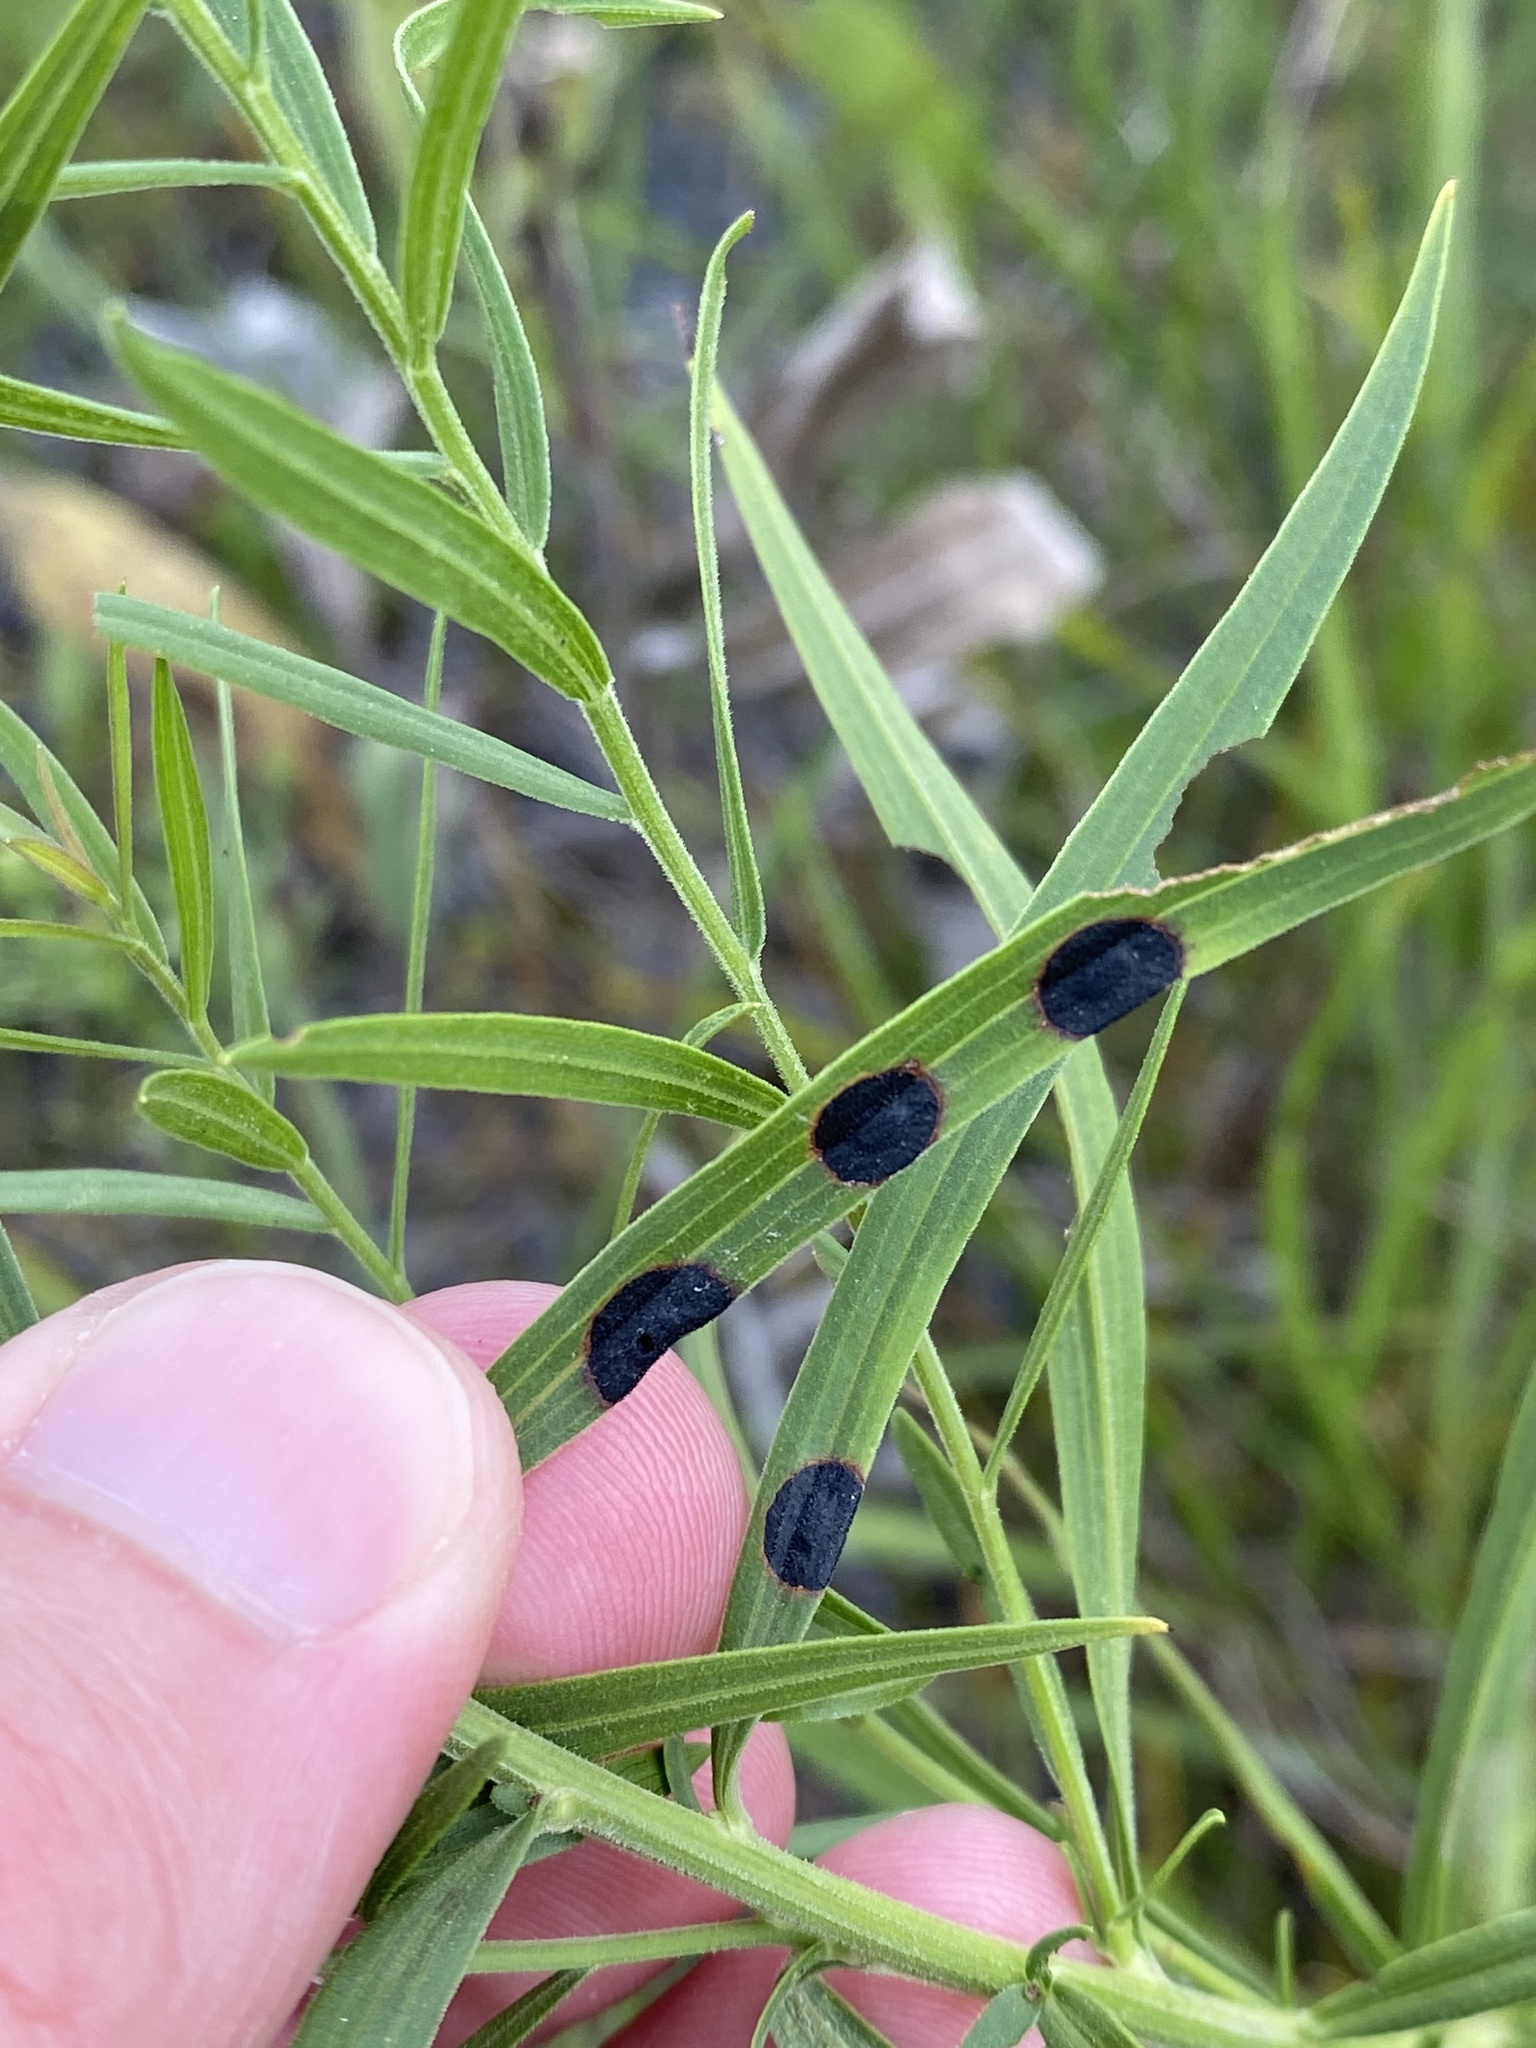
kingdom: Animalia
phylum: Arthropoda
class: Insecta
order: Diptera
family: Cecidomyiidae
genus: Asteromyia
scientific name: Asteromyia euthamiae
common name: Euthamia leaf gall midge
